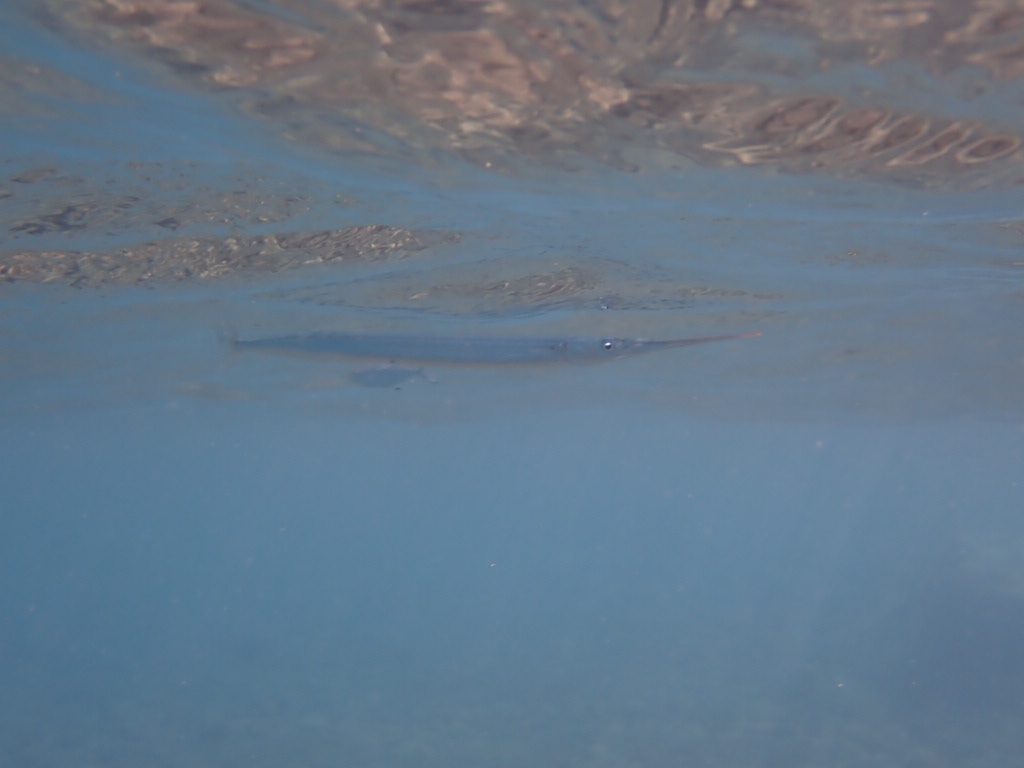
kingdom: Animalia
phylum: Chordata
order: Beloniformes
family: Belonidae
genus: Belone
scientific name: Belone
